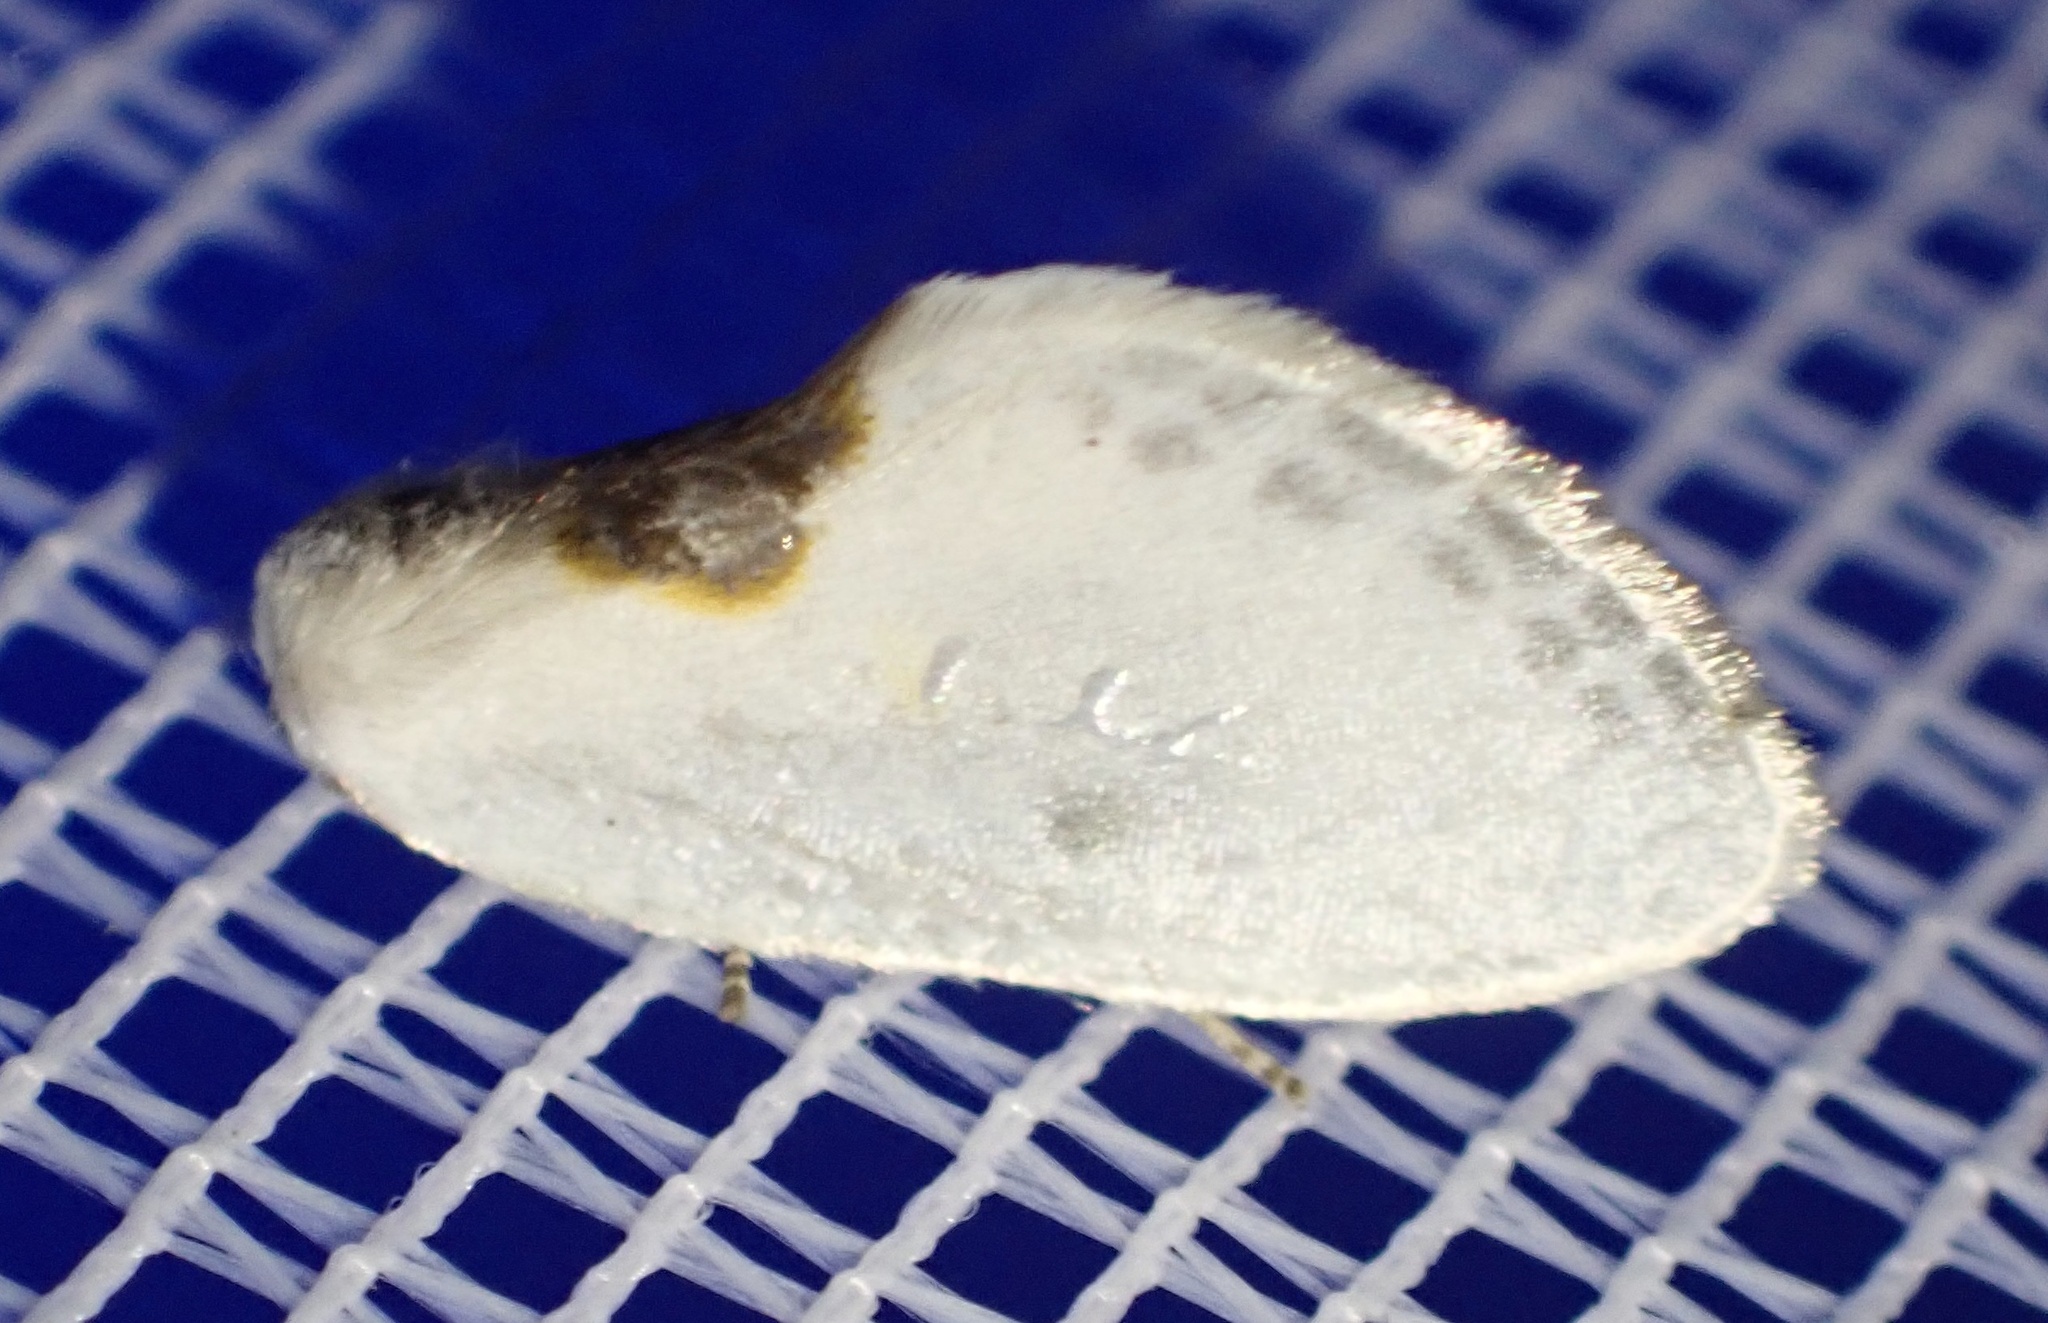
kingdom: Animalia
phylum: Arthropoda
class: Insecta
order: Lepidoptera
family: Drepanidae
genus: Cilix
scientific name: Cilix glaucata
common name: Chinese character
